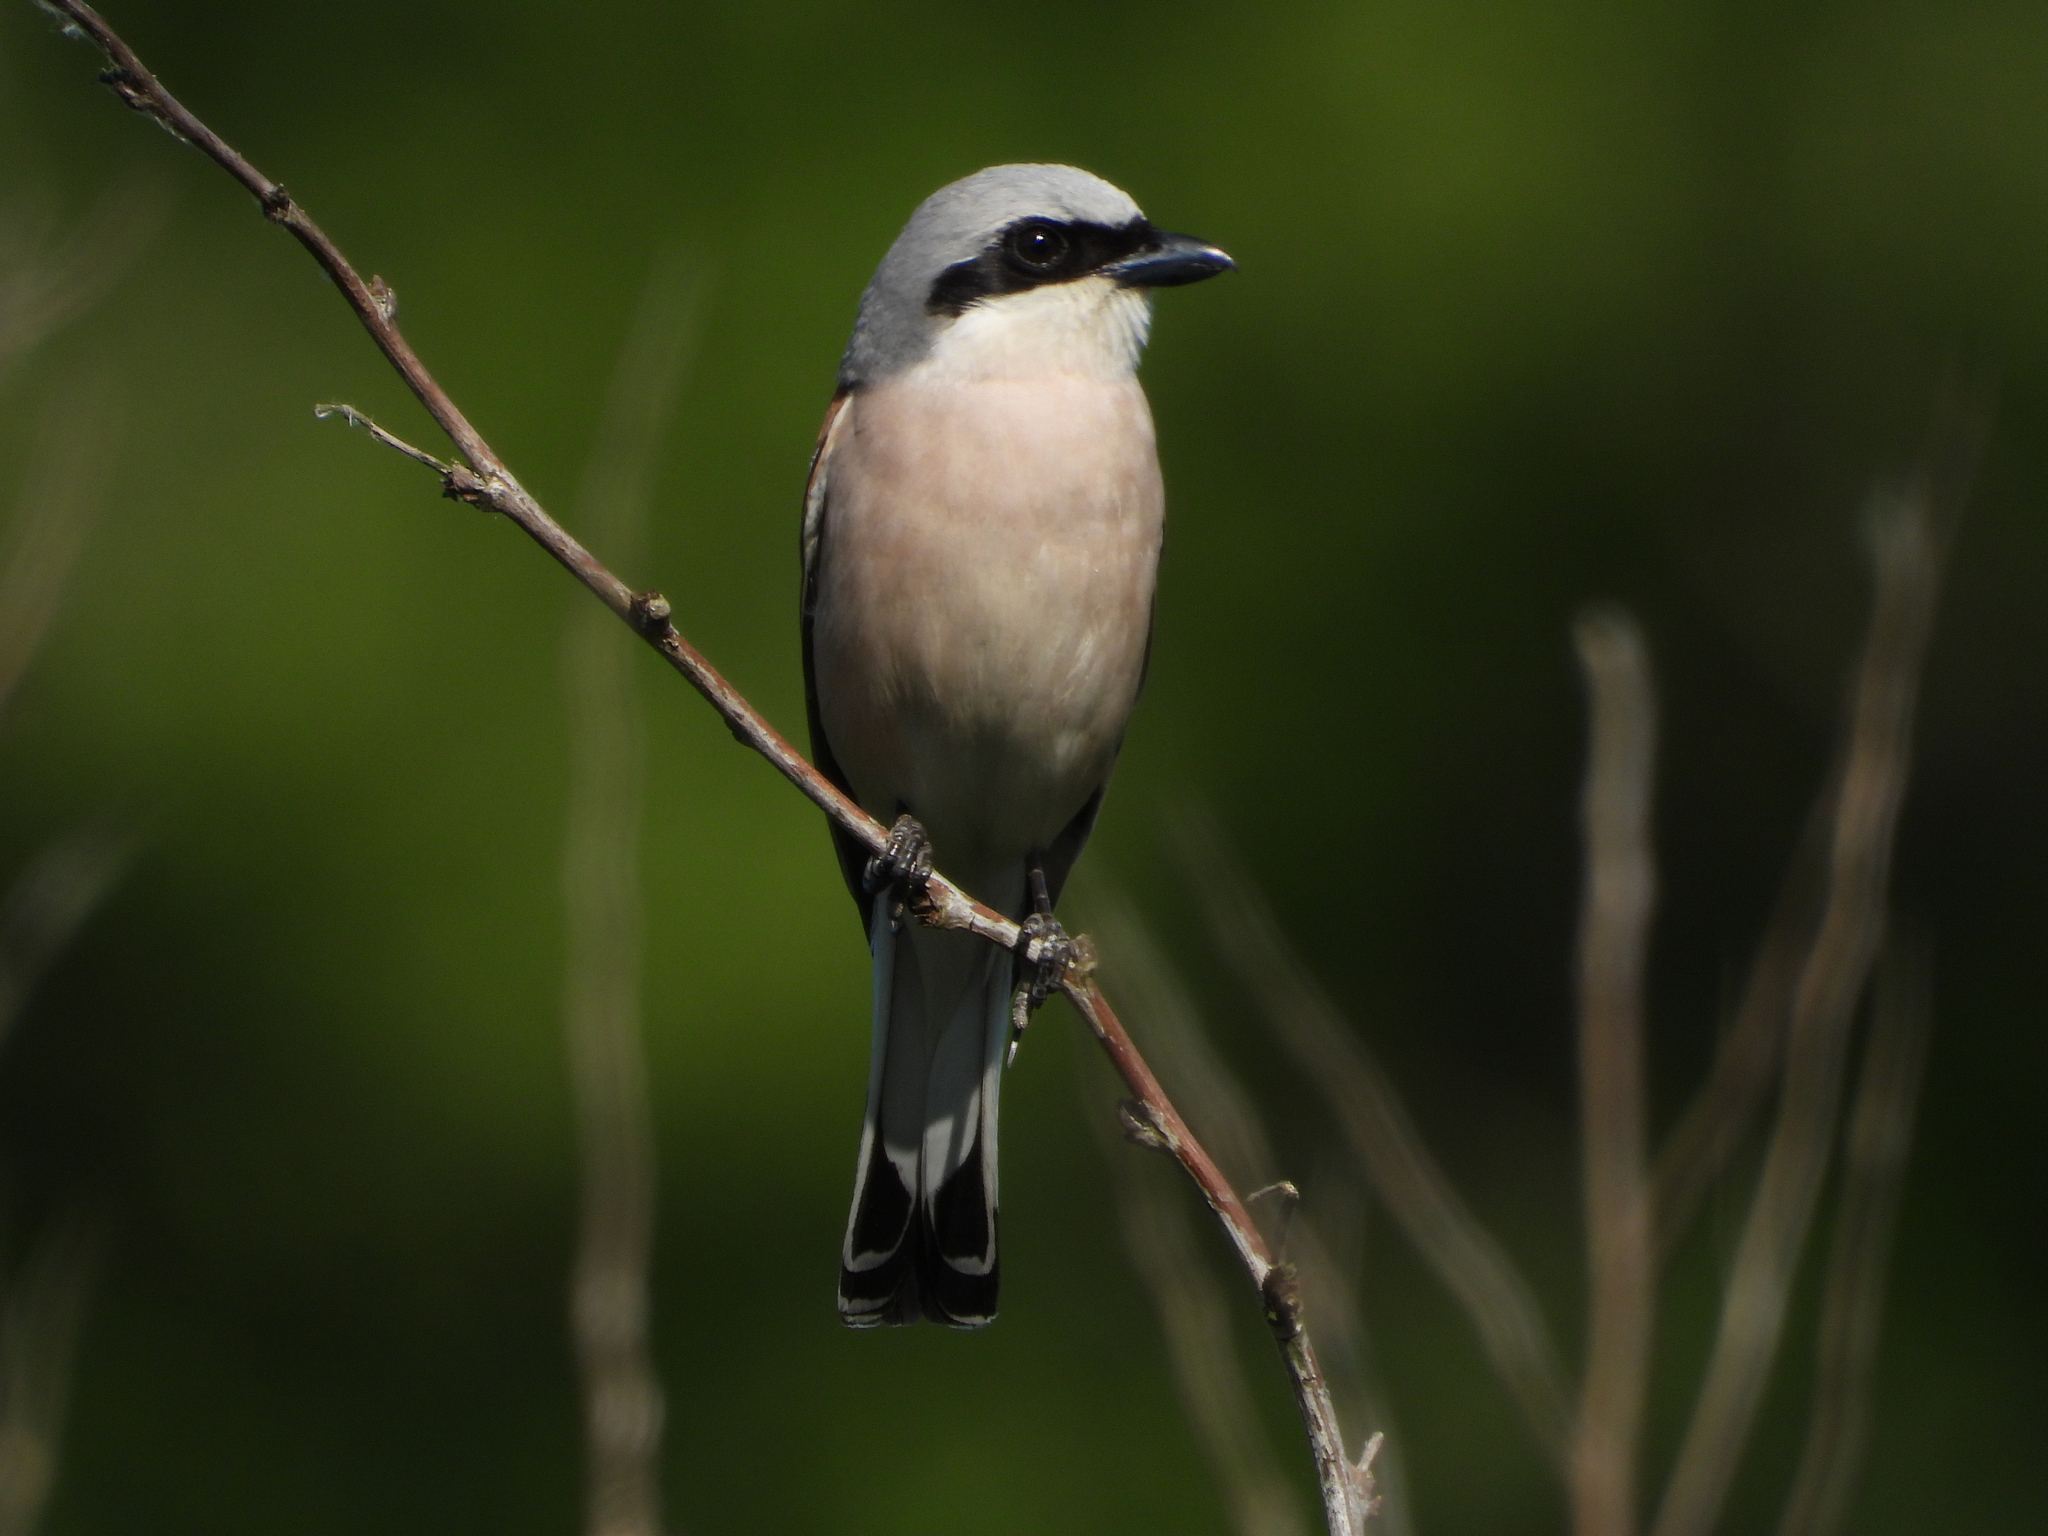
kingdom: Animalia
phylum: Chordata
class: Aves
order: Passeriformes
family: Laniidae
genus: Lanius
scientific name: Lanius collurio
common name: Red-backed shrike
